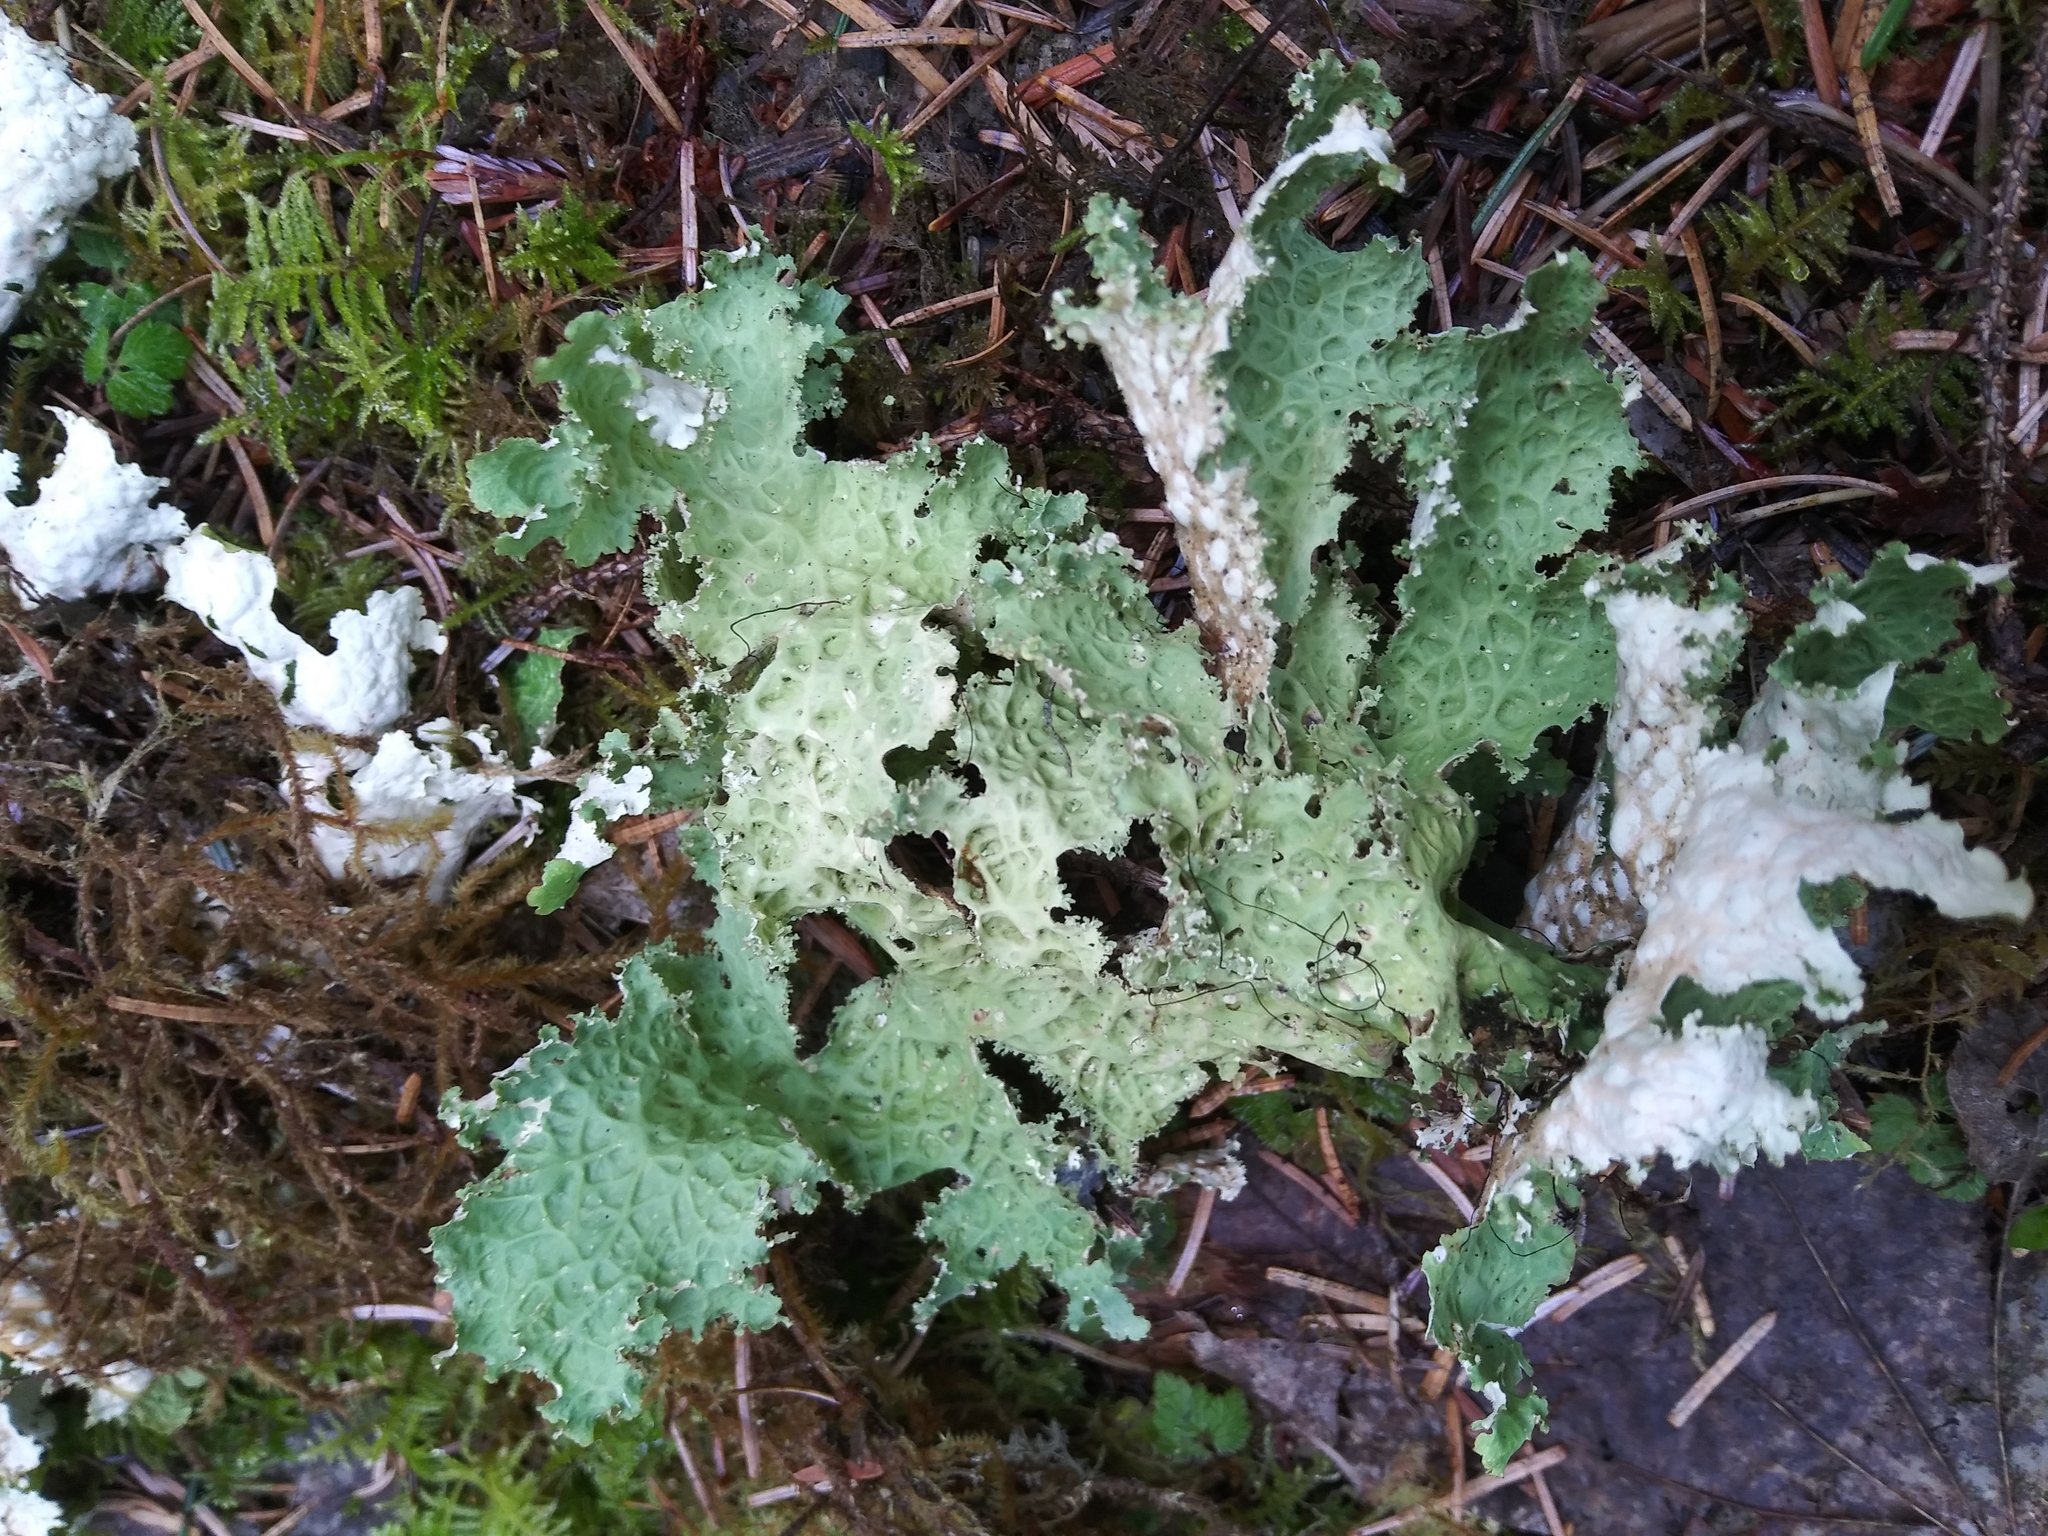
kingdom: Fungi
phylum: Ascomycota
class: Lecanoromycetes
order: Peltigerales
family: Lobariaceae
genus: Lobaria
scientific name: Lobaria oregana
